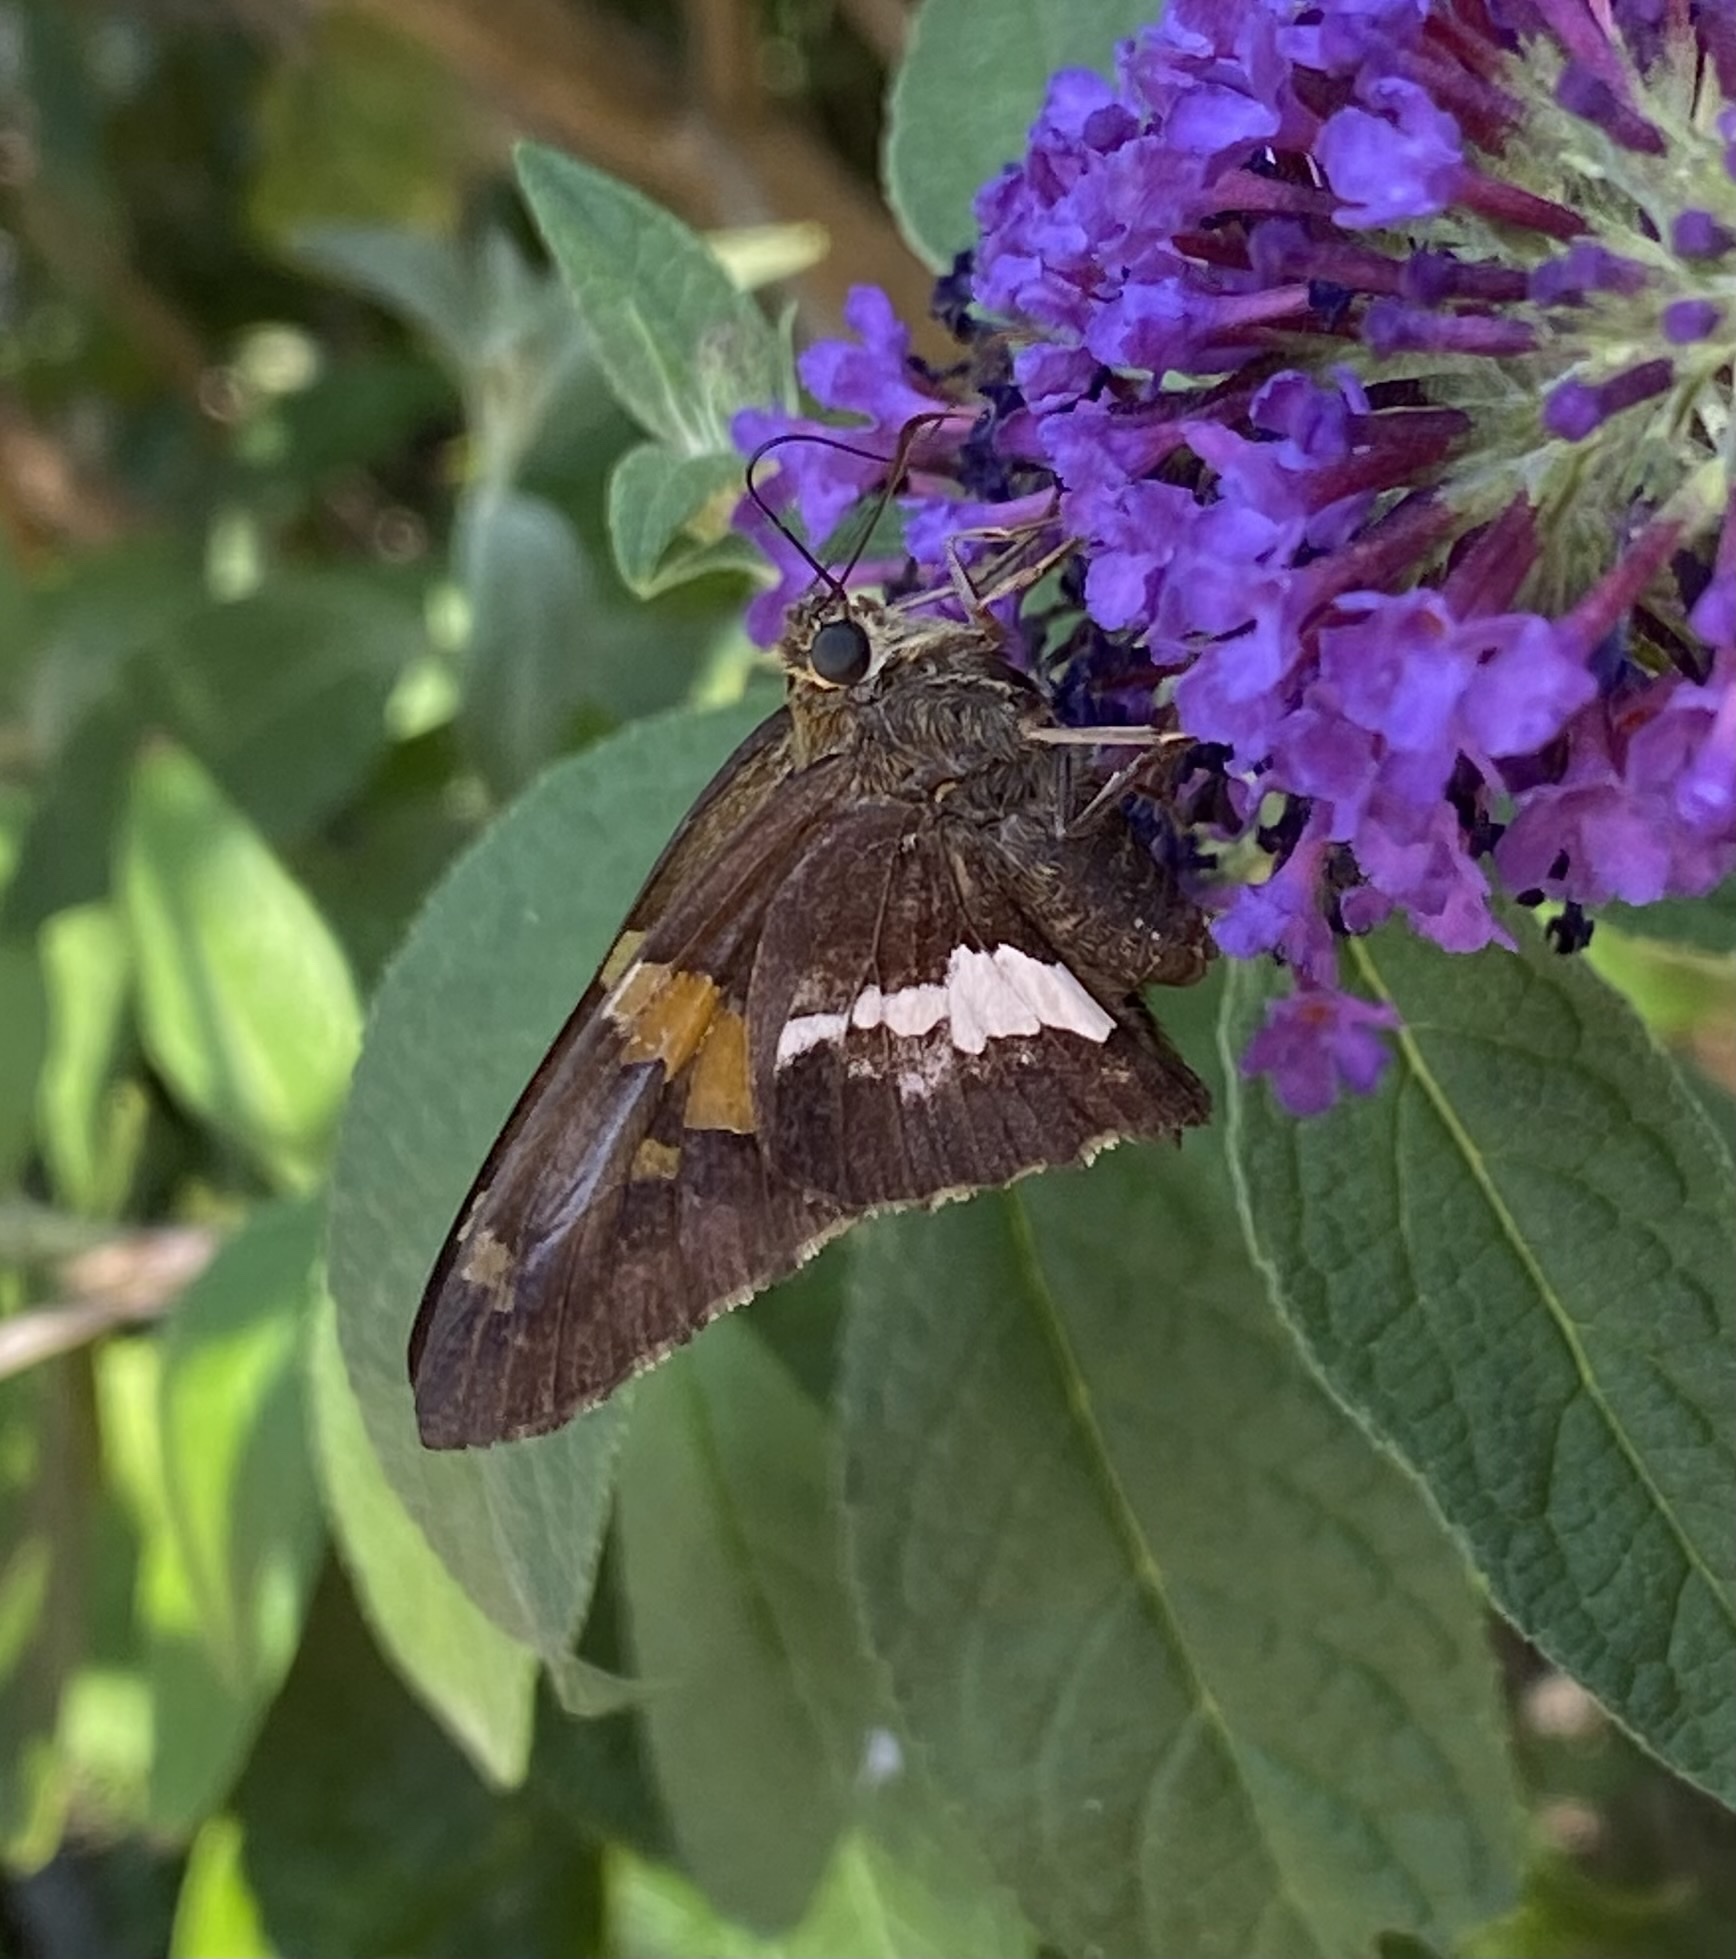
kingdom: Animalia
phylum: Arthropoda
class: Insecta
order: Lepidoptera
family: Hesperiidae
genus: Epargyreus
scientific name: Epargyreus clarus
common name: Silver-spotted skipper
